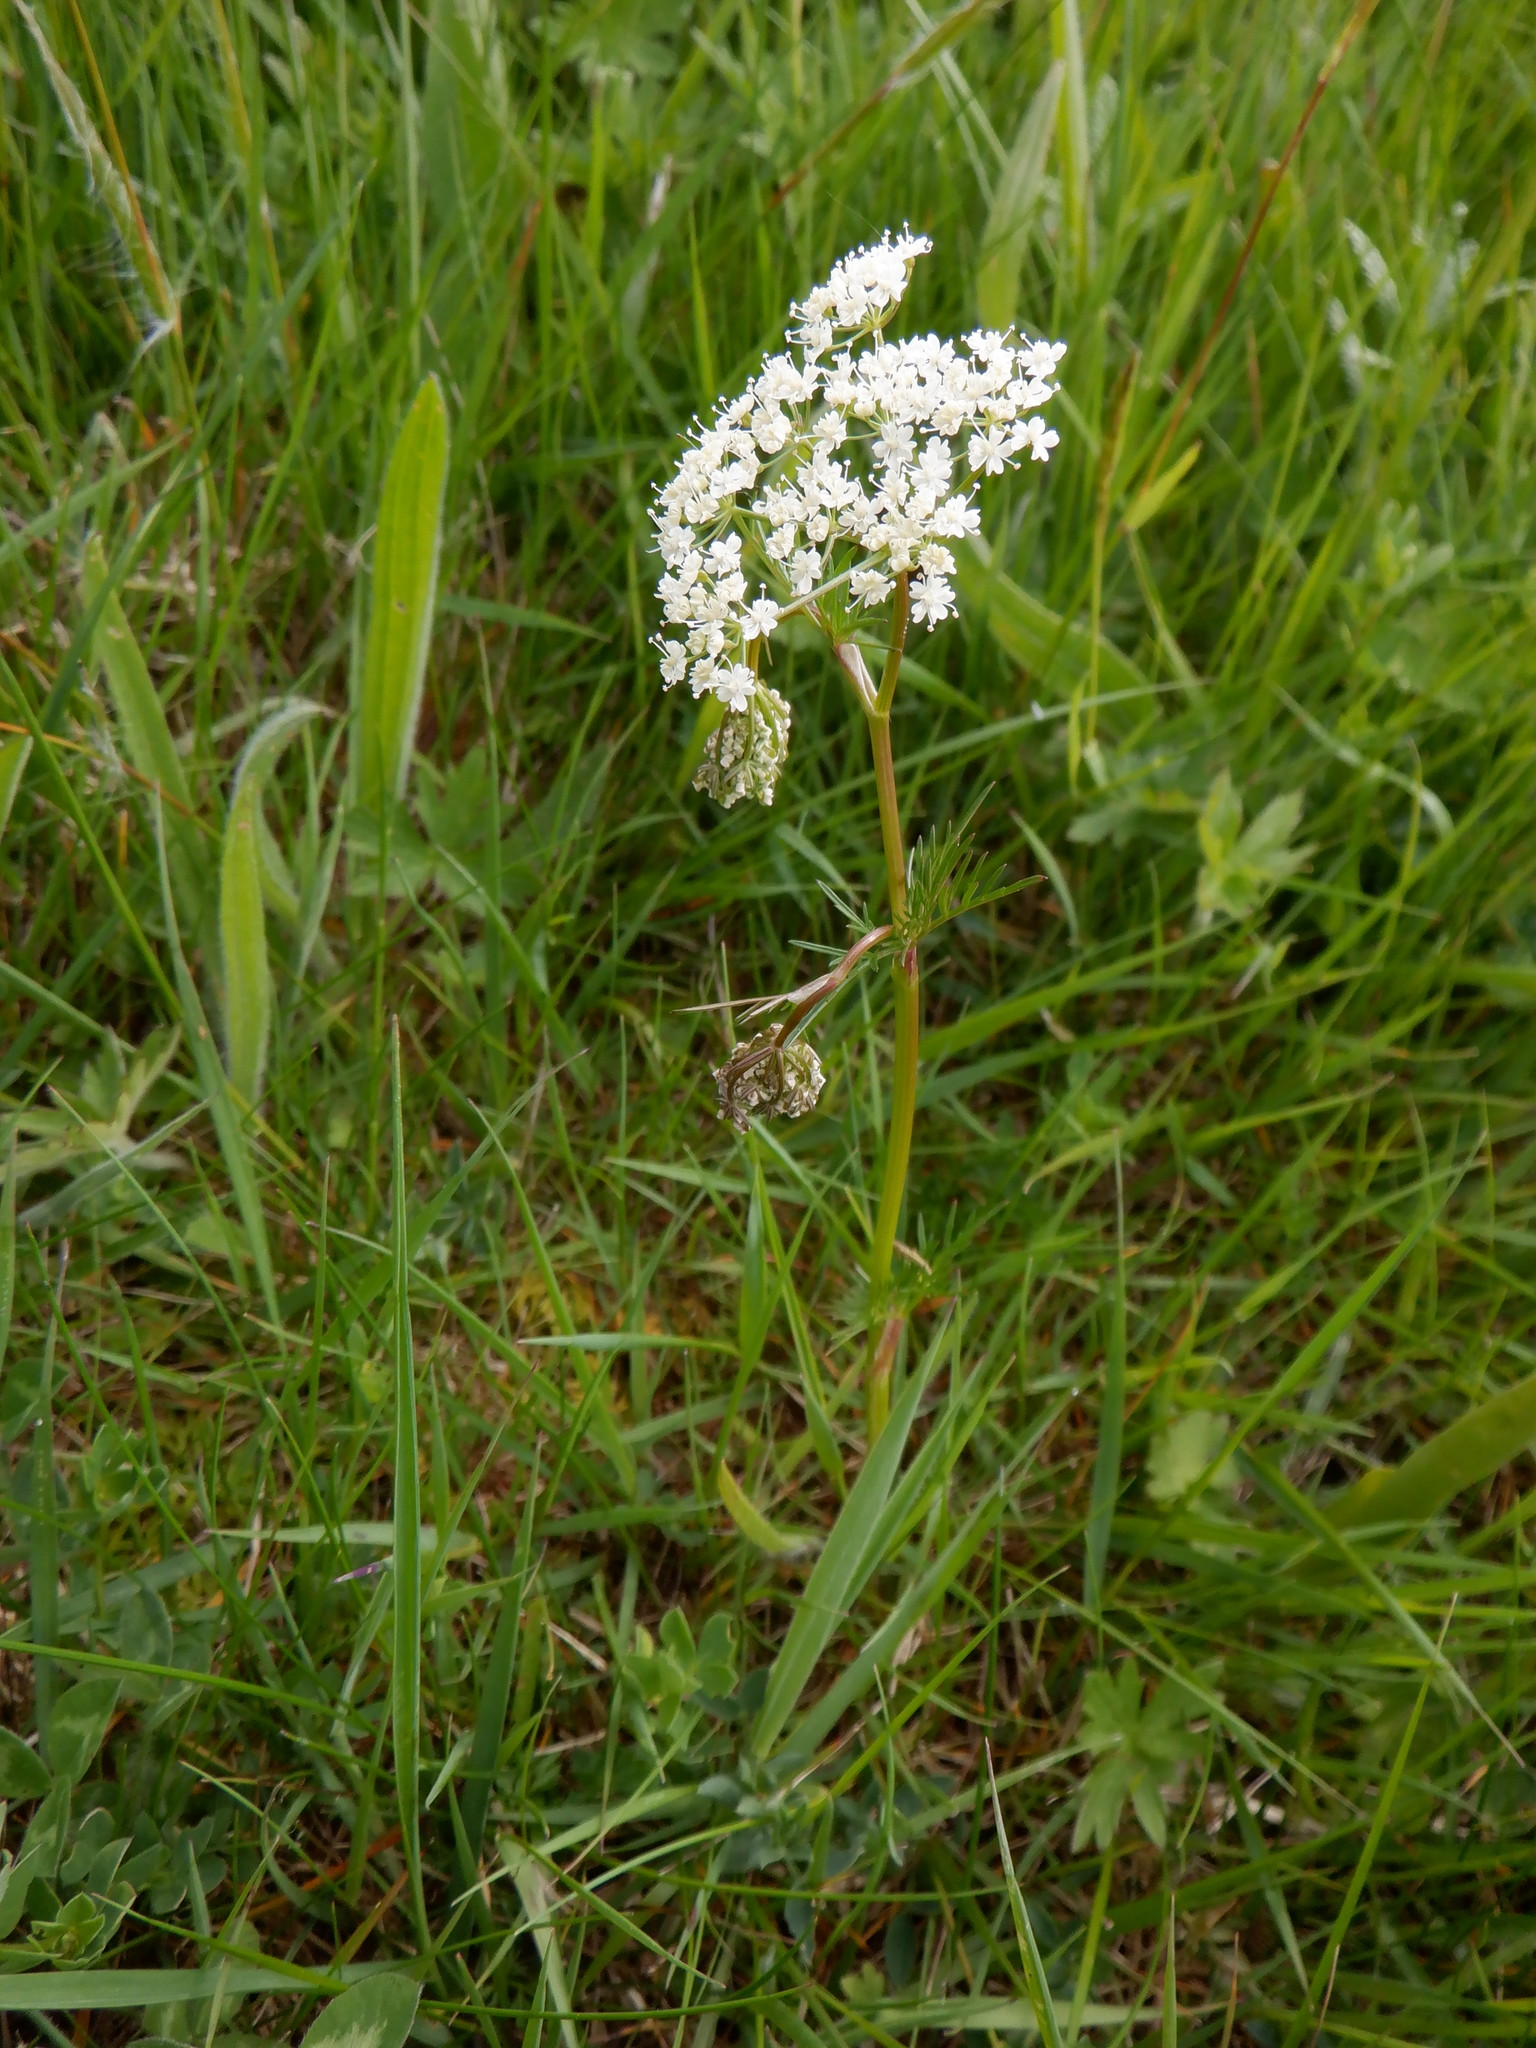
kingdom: Plantae
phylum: Tracheophyta
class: Magnoliopsida
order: Apiales
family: Apiaceae
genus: Conopodium
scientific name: Conopodium majus
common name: Pignut
